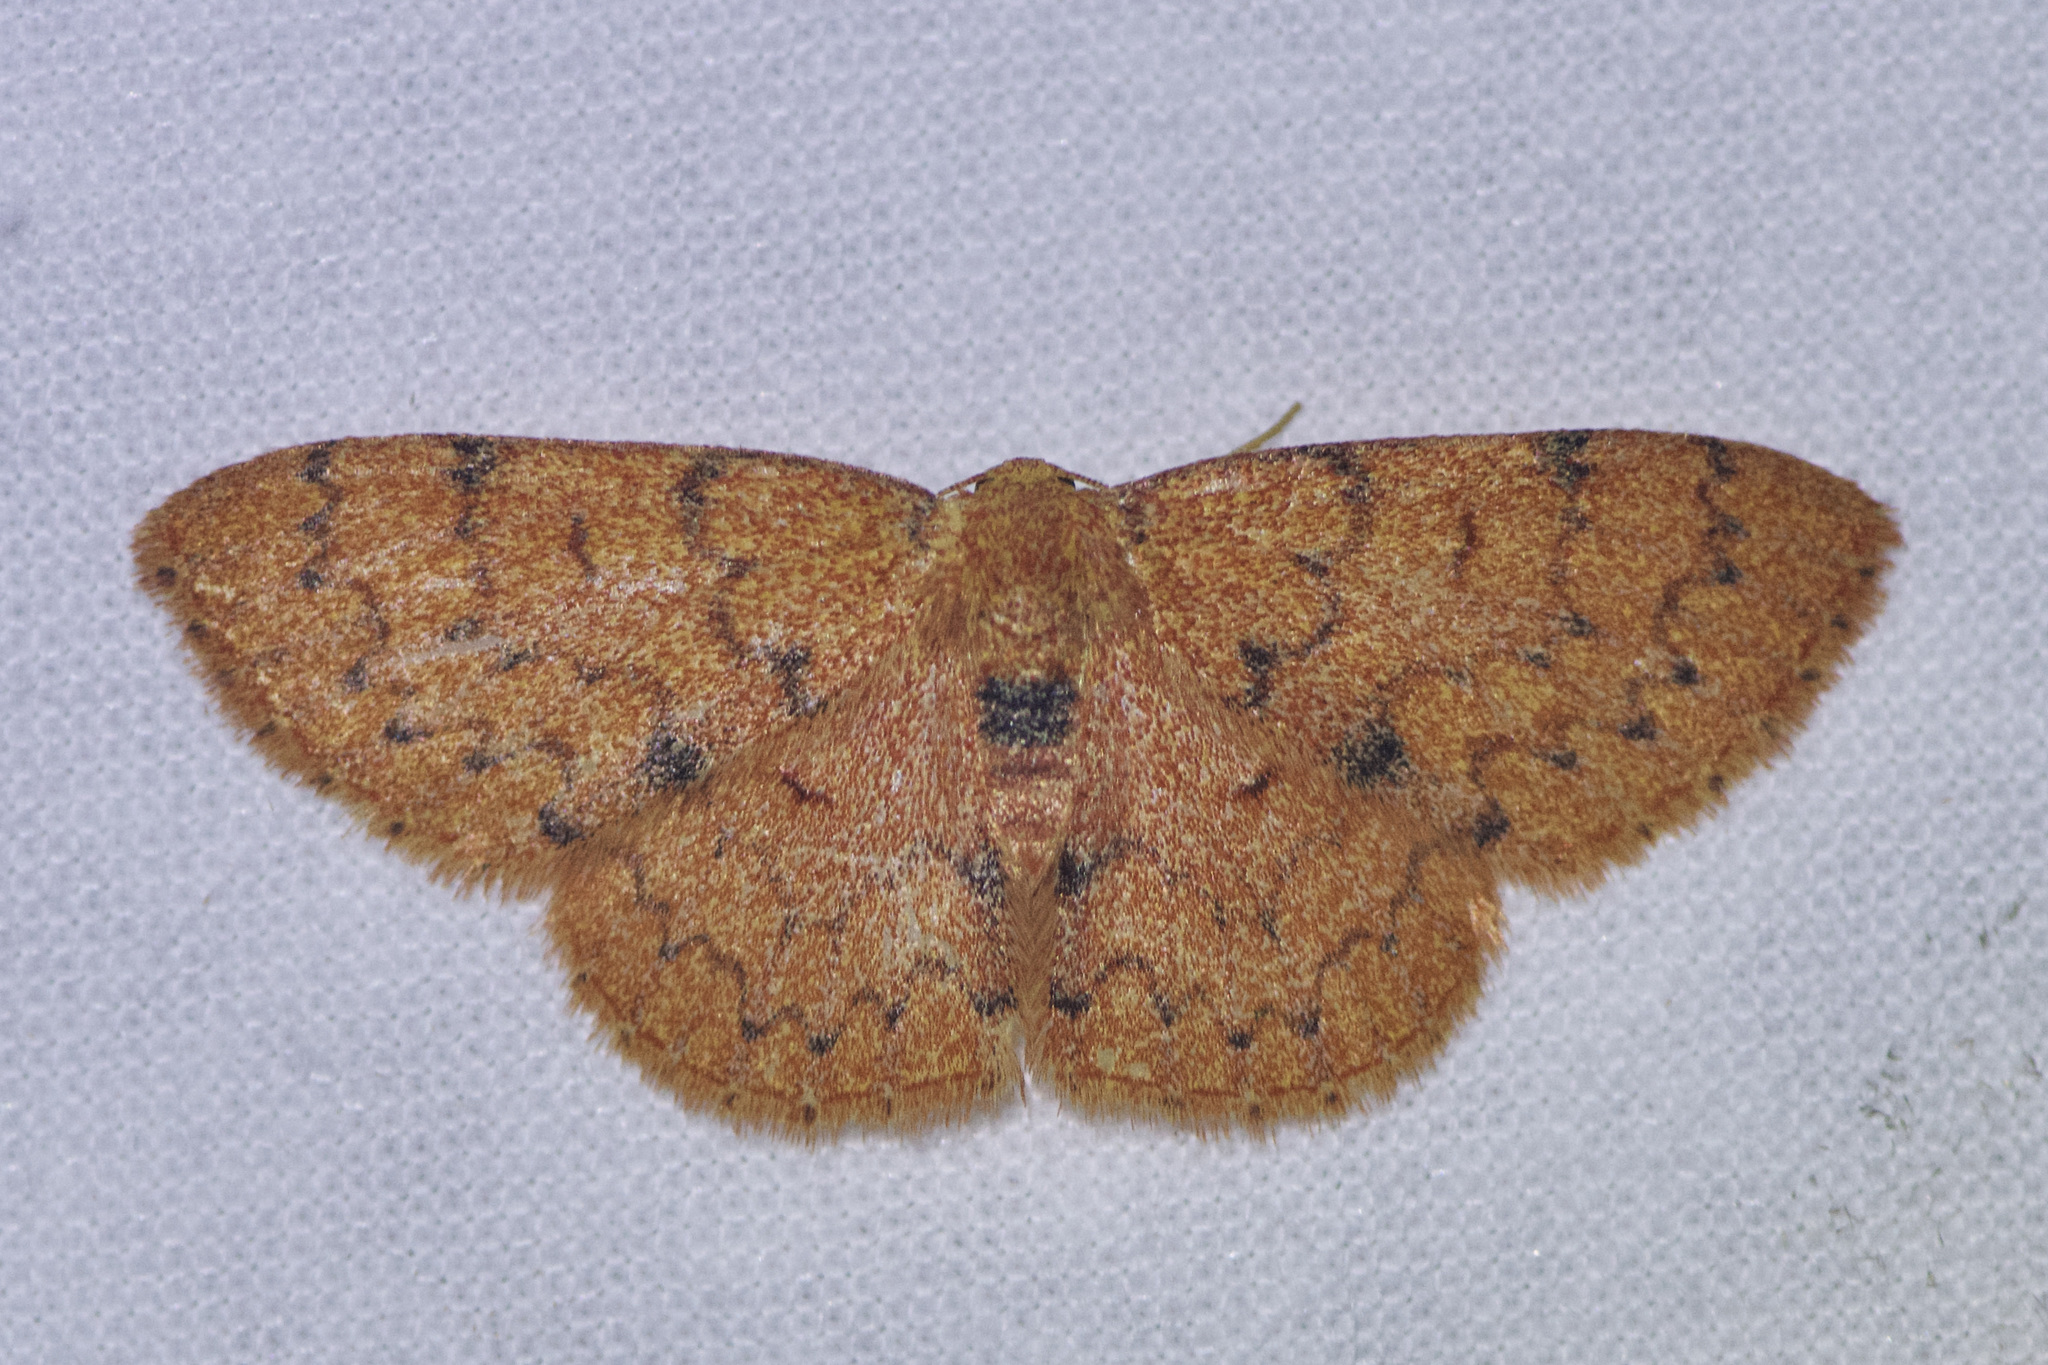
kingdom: Animalia
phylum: Arthropoda
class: Insecta
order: Lepidoptera
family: Geometridae
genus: Semaeopus
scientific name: Semaeopus trophinus
